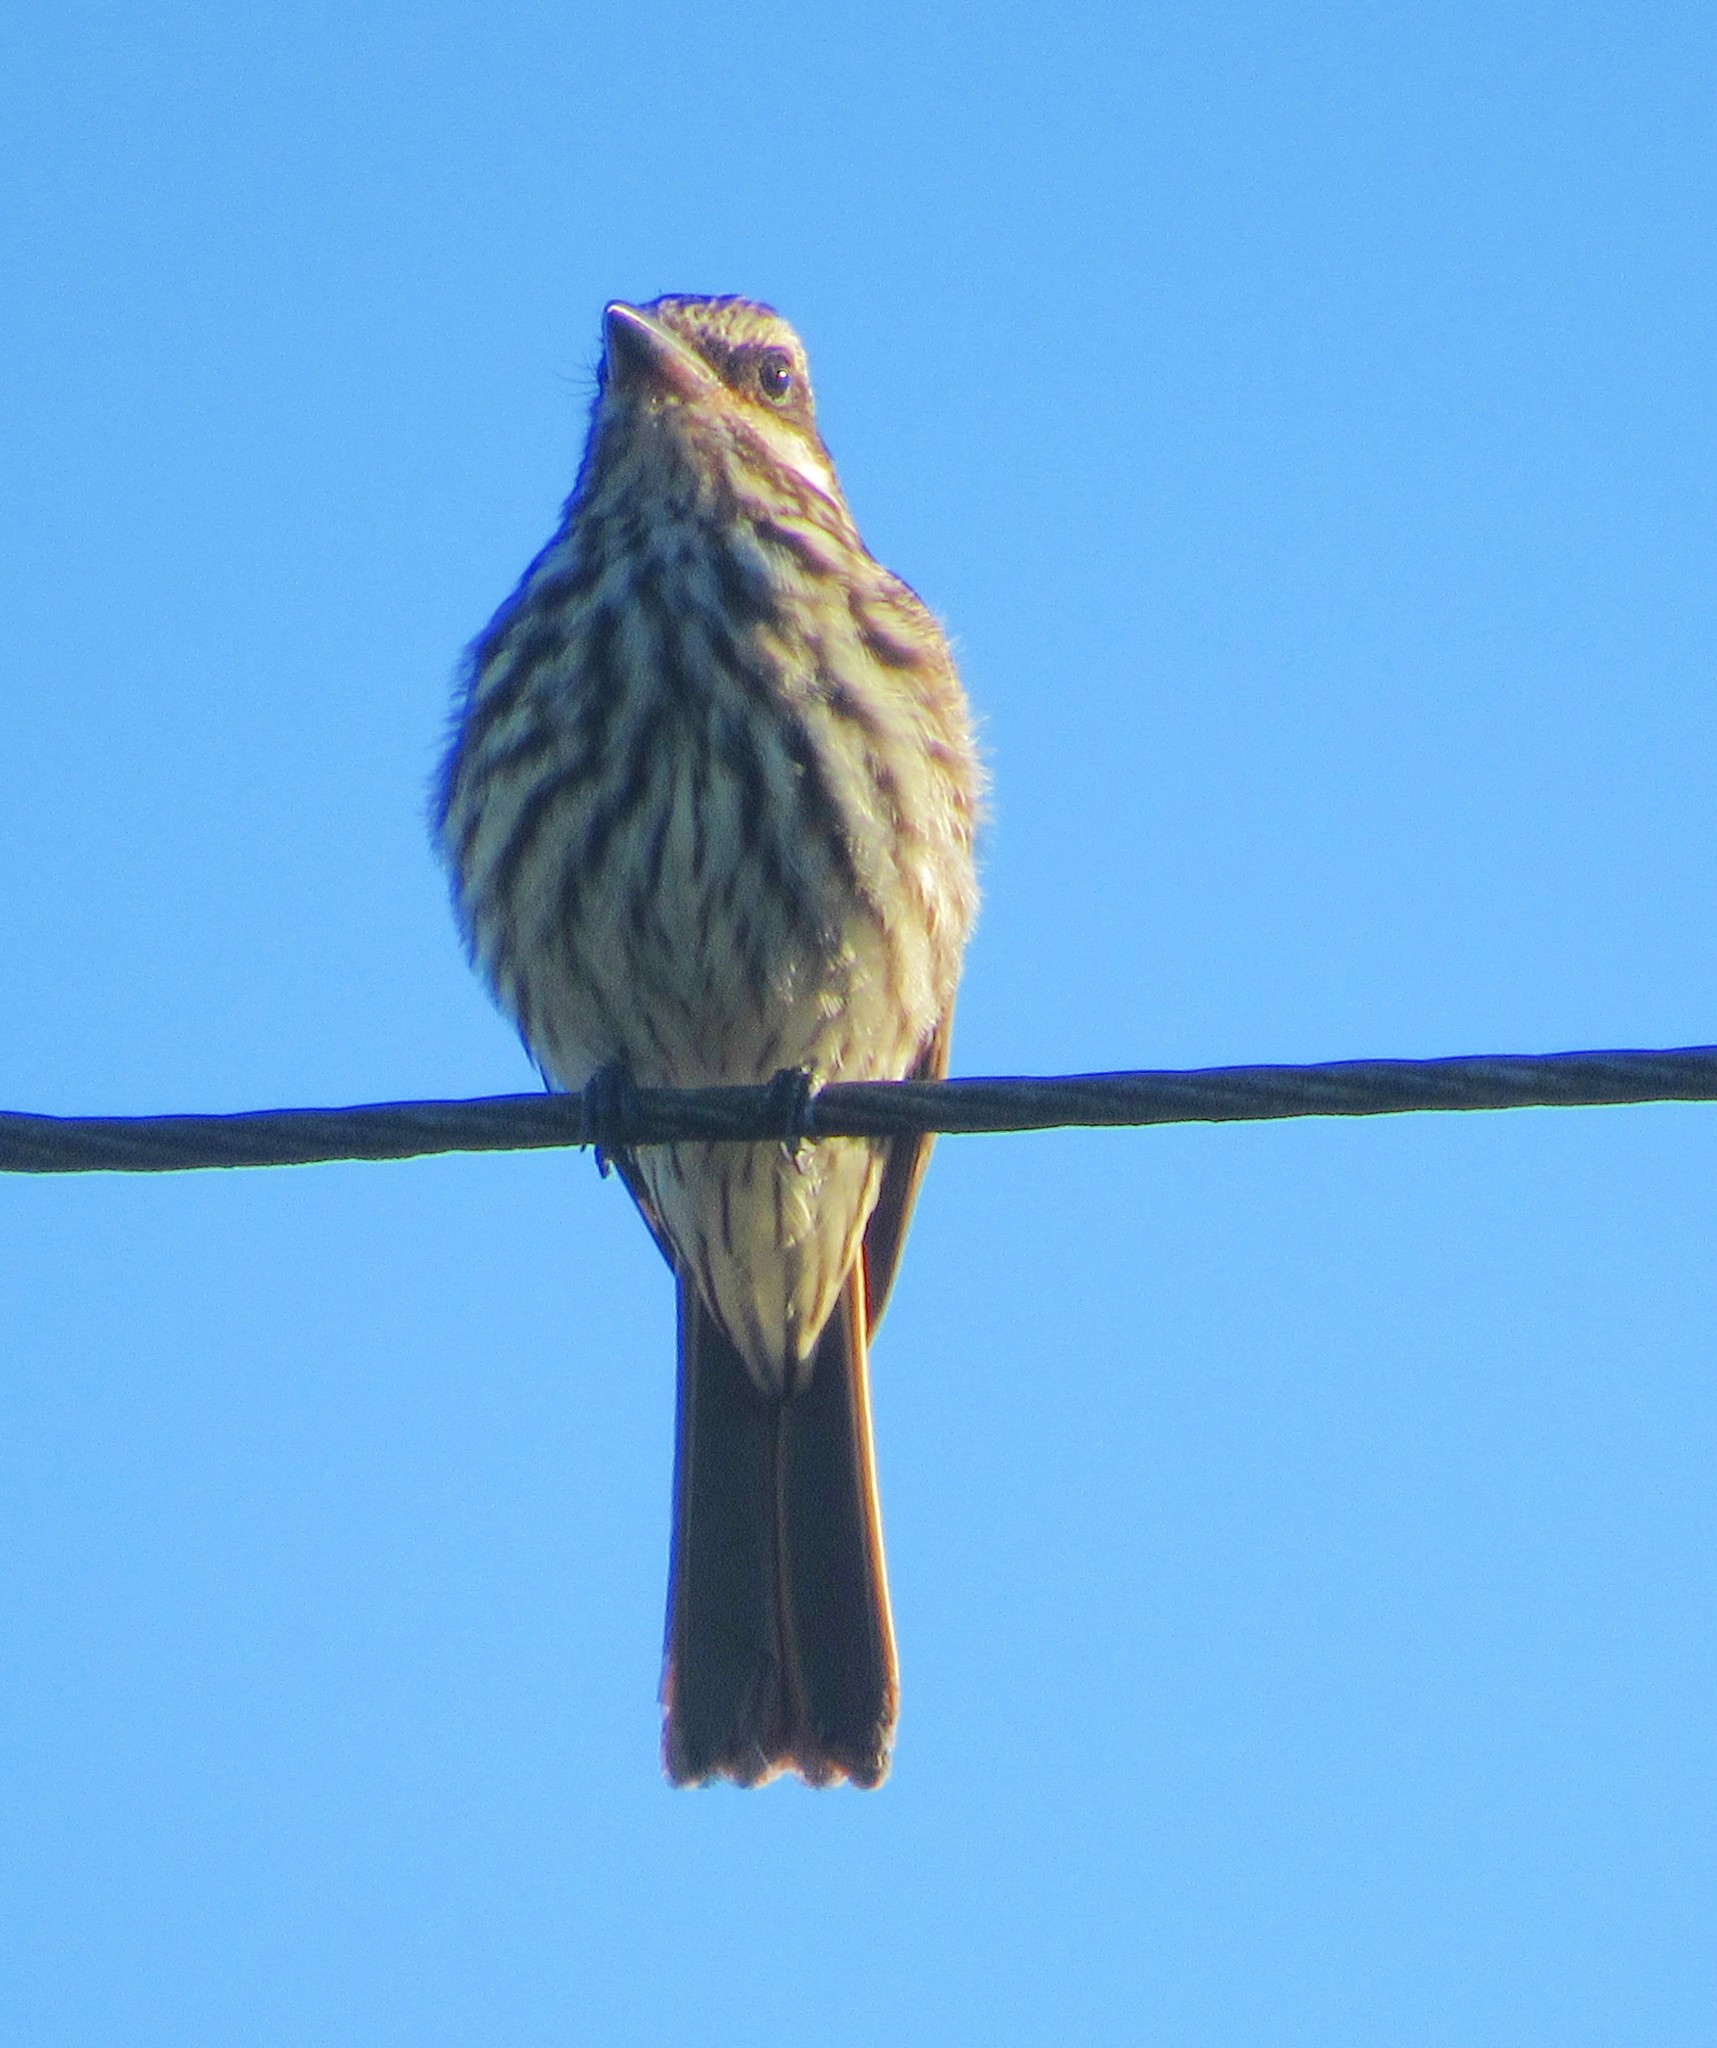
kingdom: Animalia
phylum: Chordata
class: Aves
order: Passeriformes
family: Tyrannidae
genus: Myiodynastes
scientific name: Myiodynastes maculatus
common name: Streaked flycatcher
